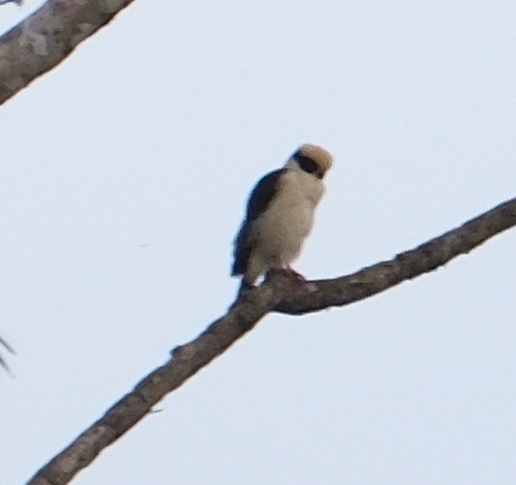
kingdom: Animalia
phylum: Chordata
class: Aves
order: Falconiformes
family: Falconidae
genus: Herpetotheres
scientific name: Herpetotheres cachinnans
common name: Laughing falcon
